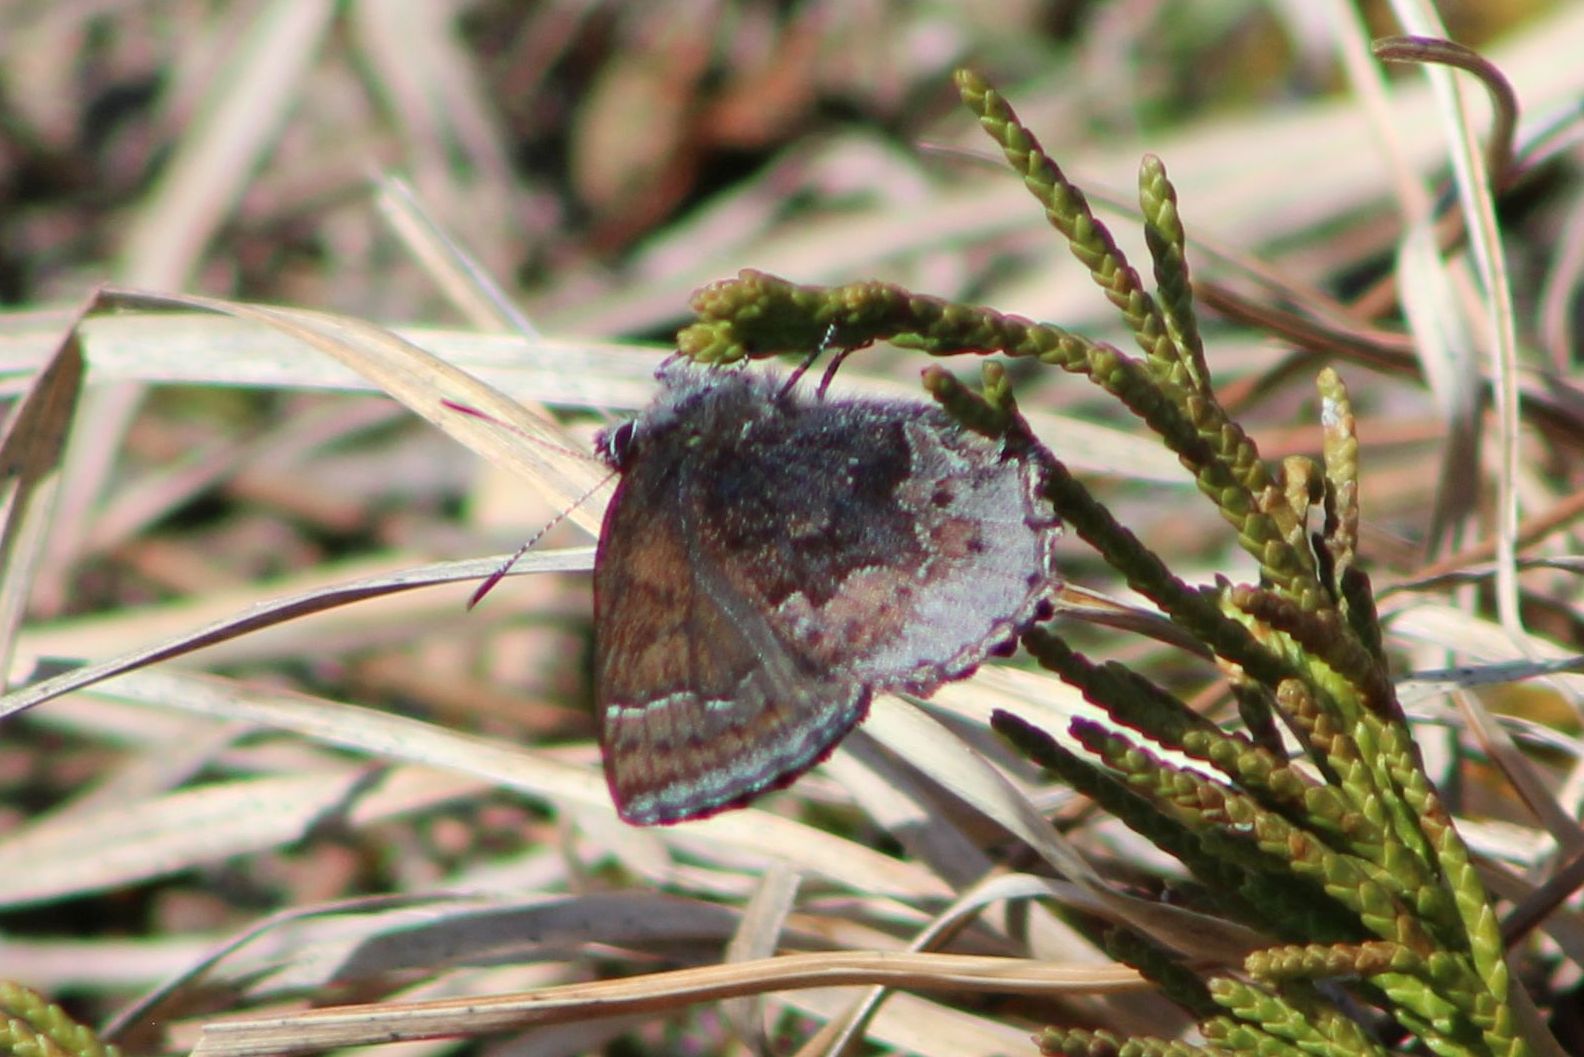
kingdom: Animalia
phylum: Arthropoda
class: Insecta
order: Lepidoptera
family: Lycaenidae
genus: Callophrys
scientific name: Callophrys polios
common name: Hoary elfin
